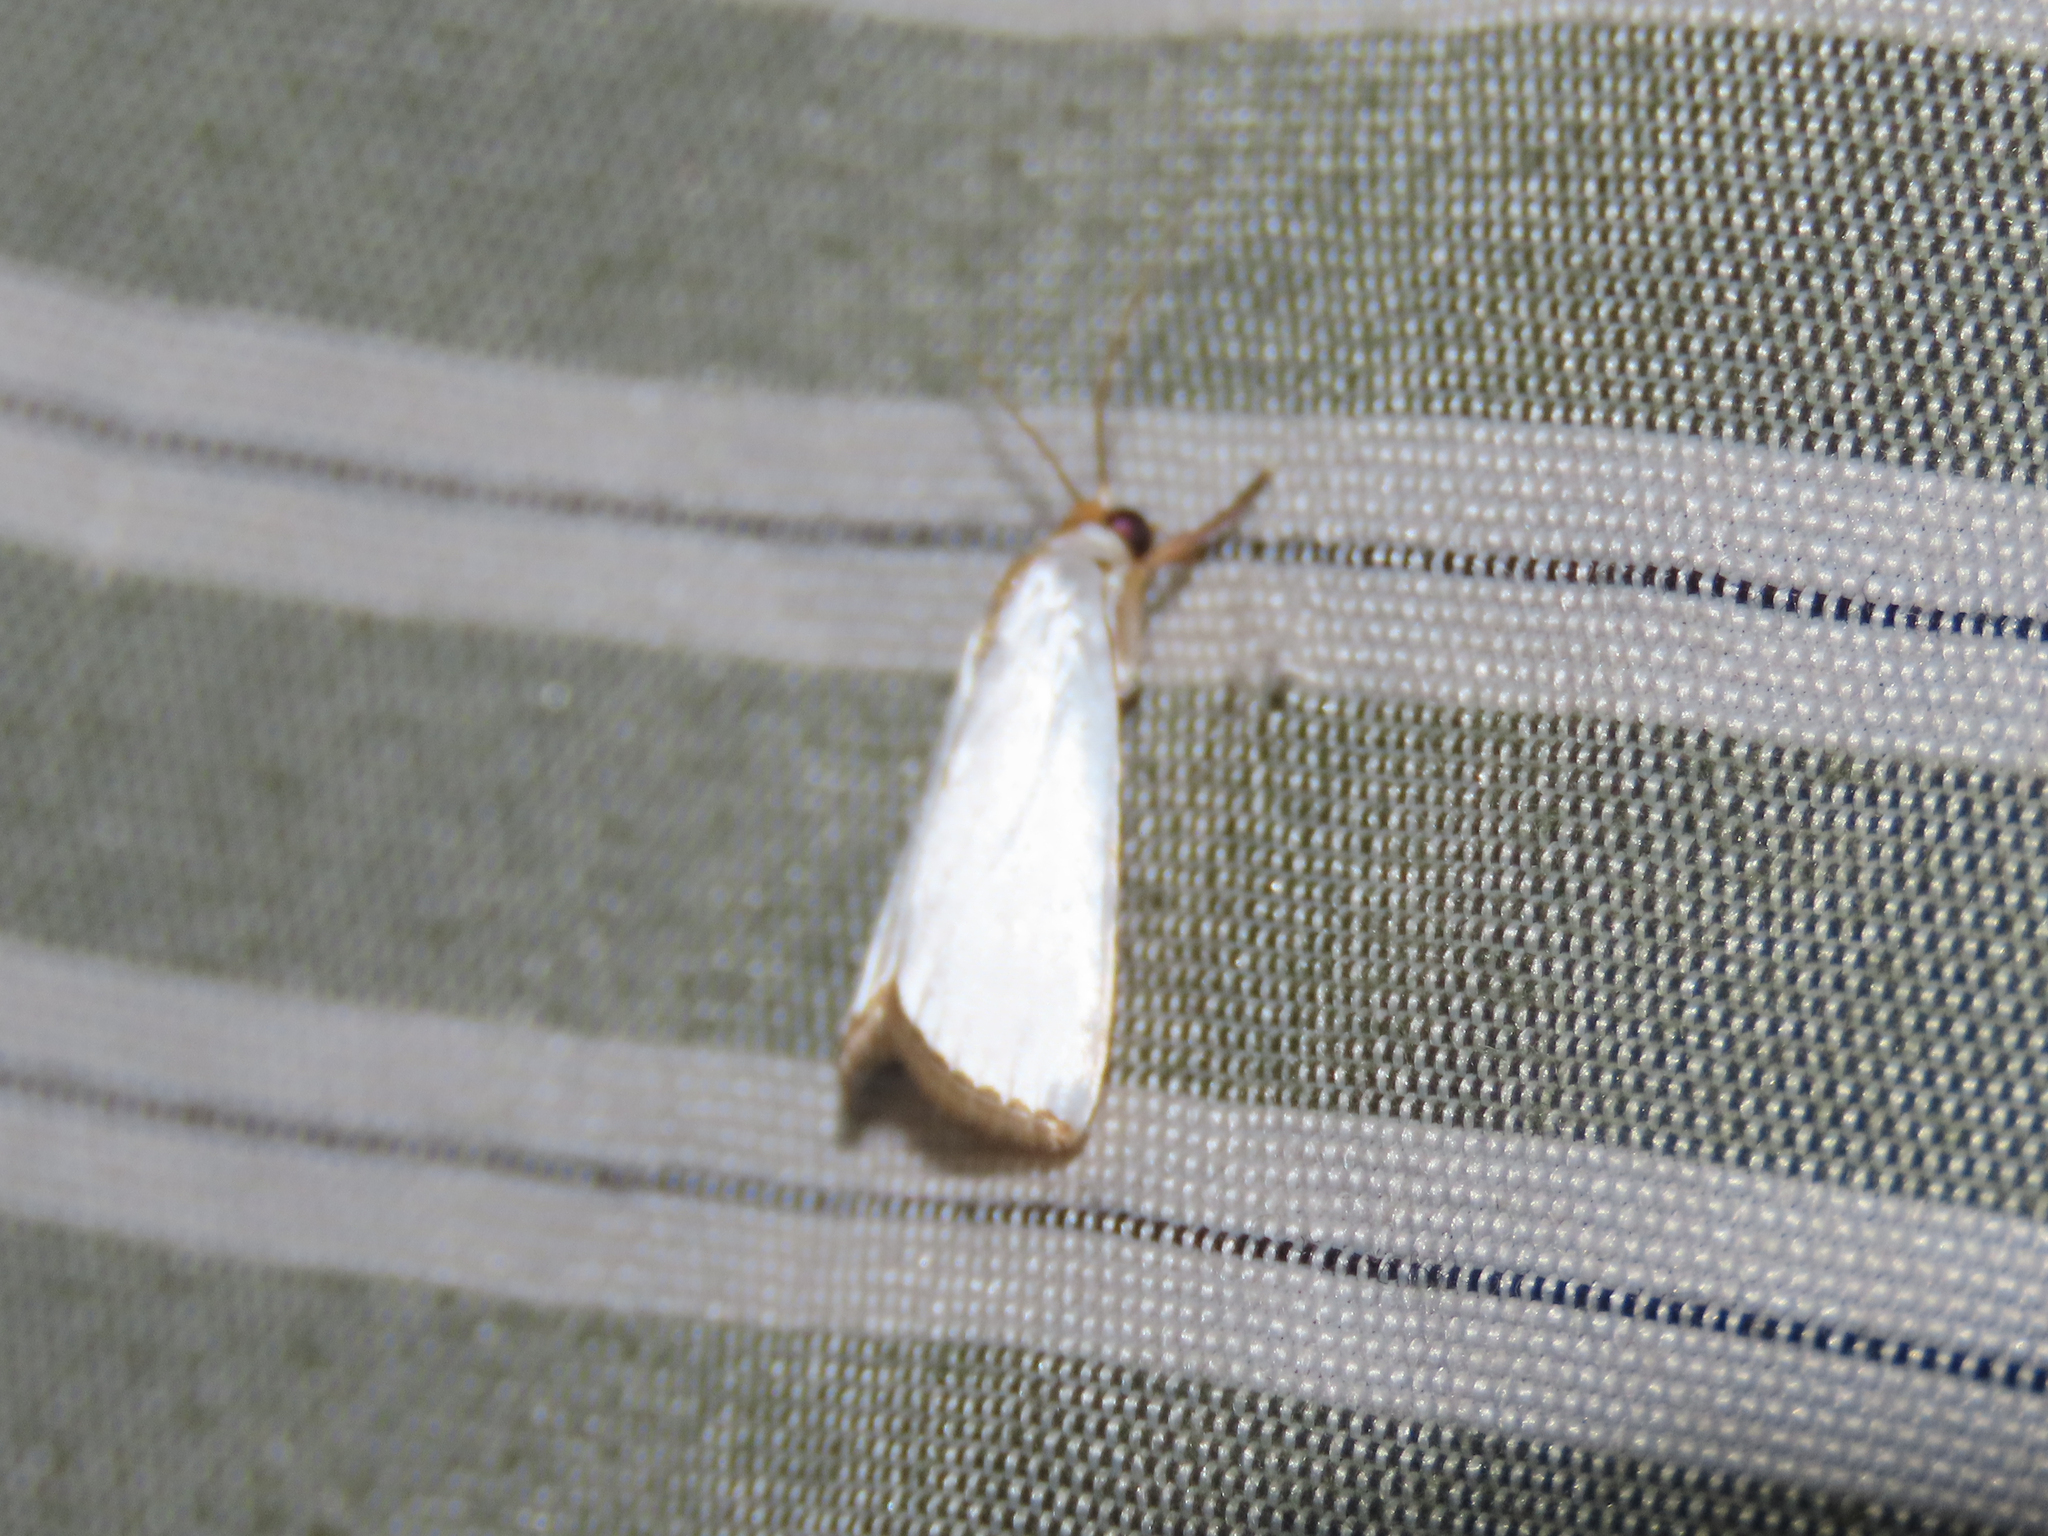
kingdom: Animalia
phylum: Arthropoda
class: Insecta
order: Lepidoptera
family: Crambidae
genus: Argyria
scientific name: Argyria nivalis
